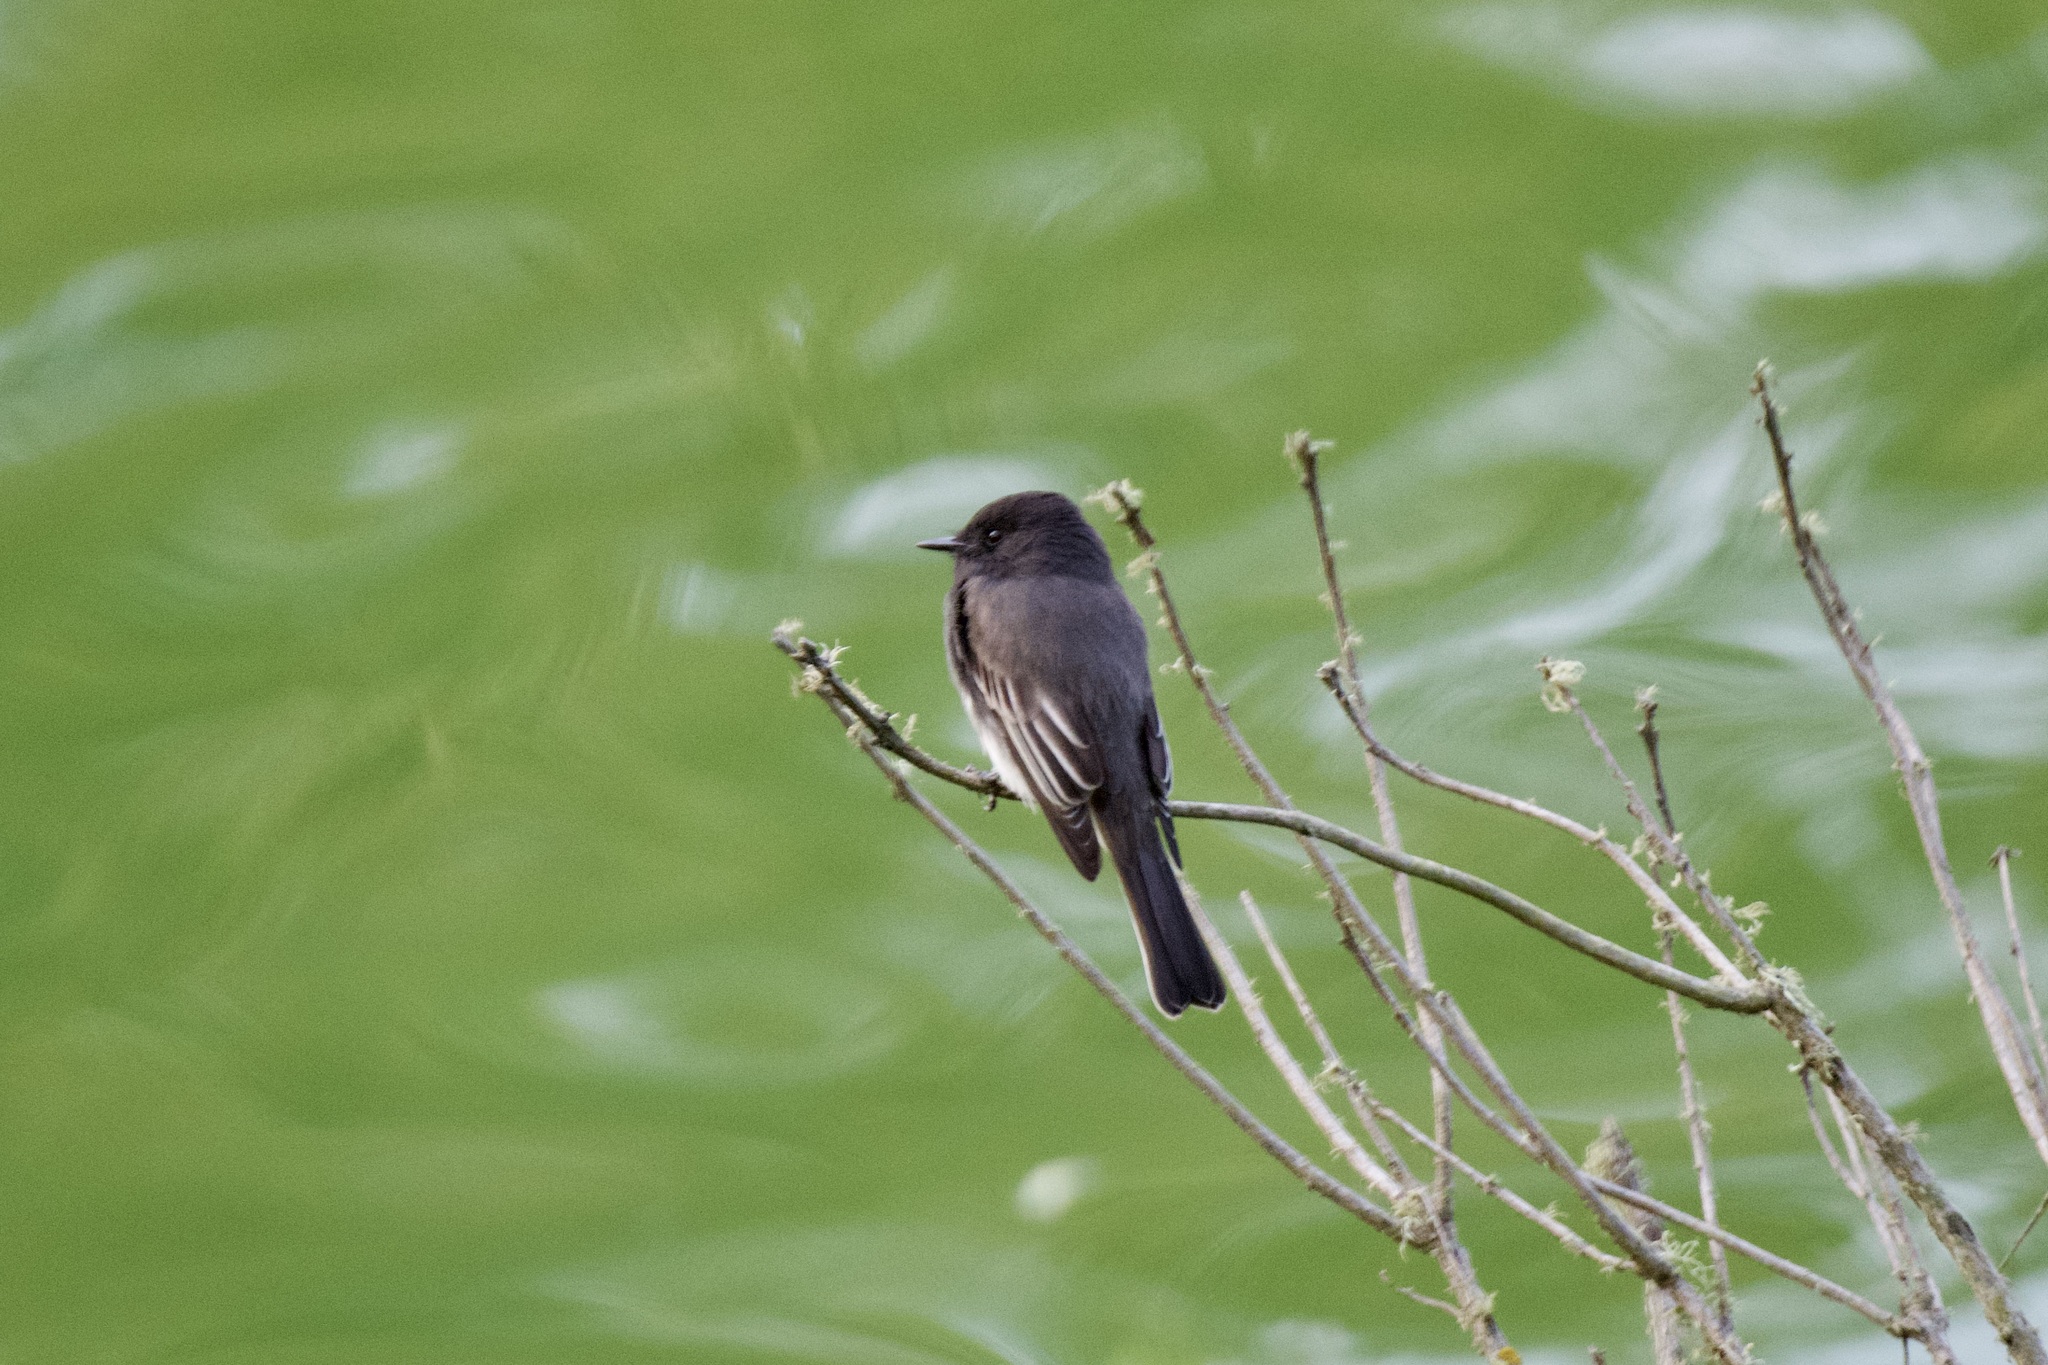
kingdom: Animalia
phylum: Chordata
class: Aves
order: Passeriformes
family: Tyrannidae
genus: Sayornis
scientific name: Sayornis nigricans
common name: Black phoebe
